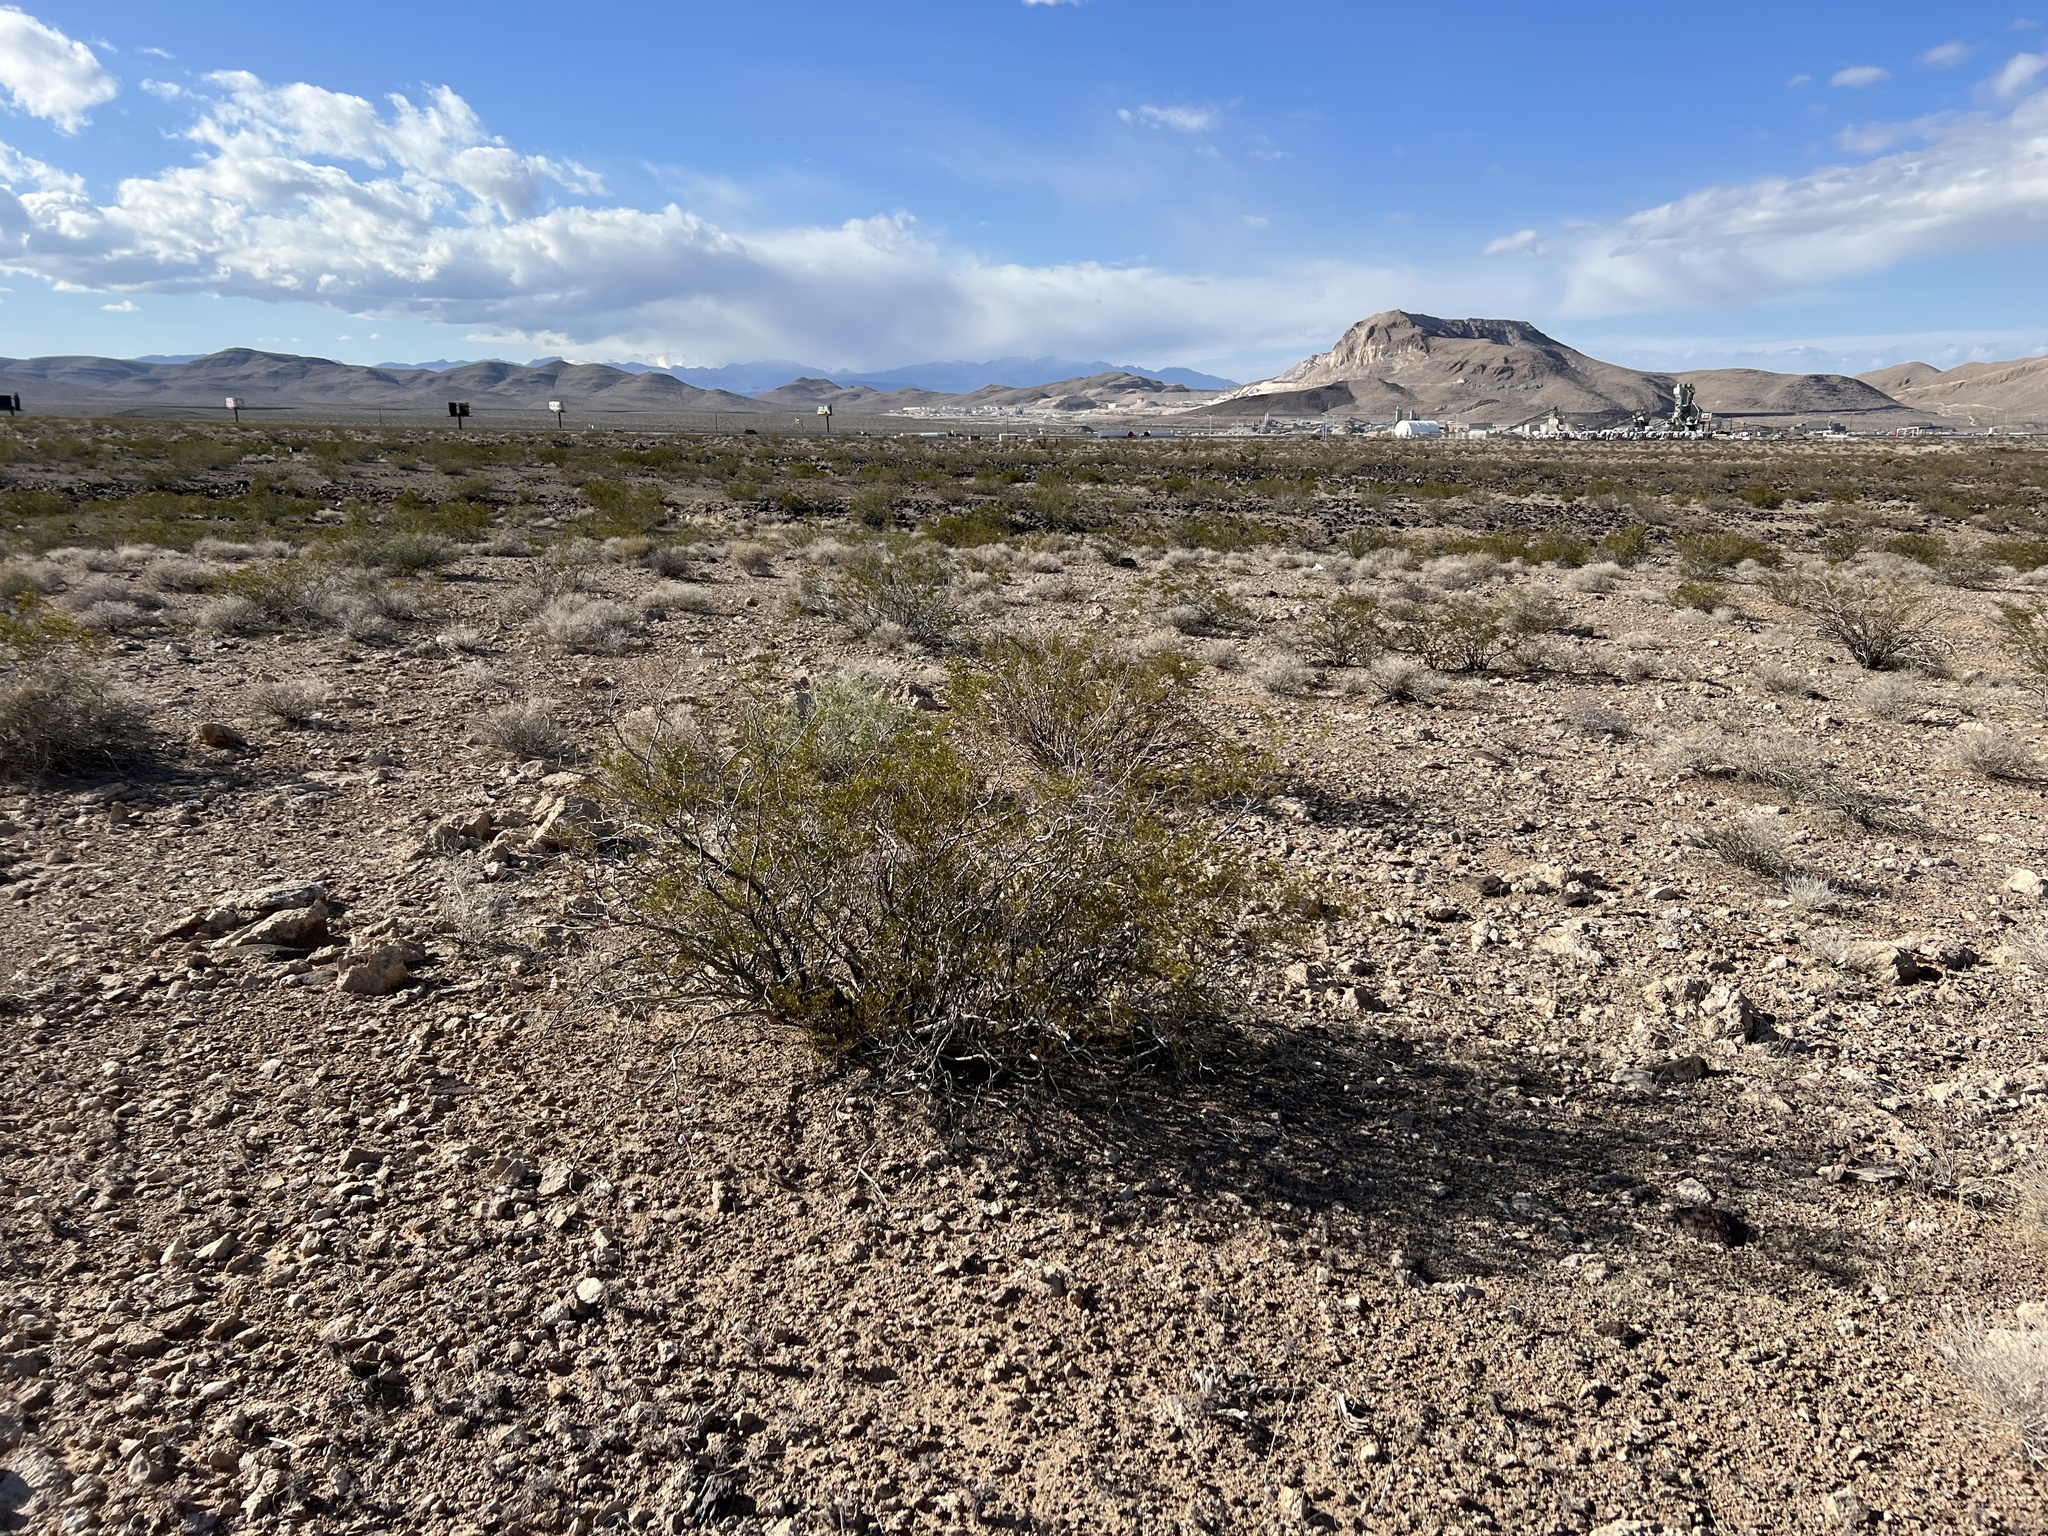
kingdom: Plantae
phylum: Tracheophyta
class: Magnoliopsida
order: Zygophyllales
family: Zygophyllaceae
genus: Larrea
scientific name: Larrea tridentata
